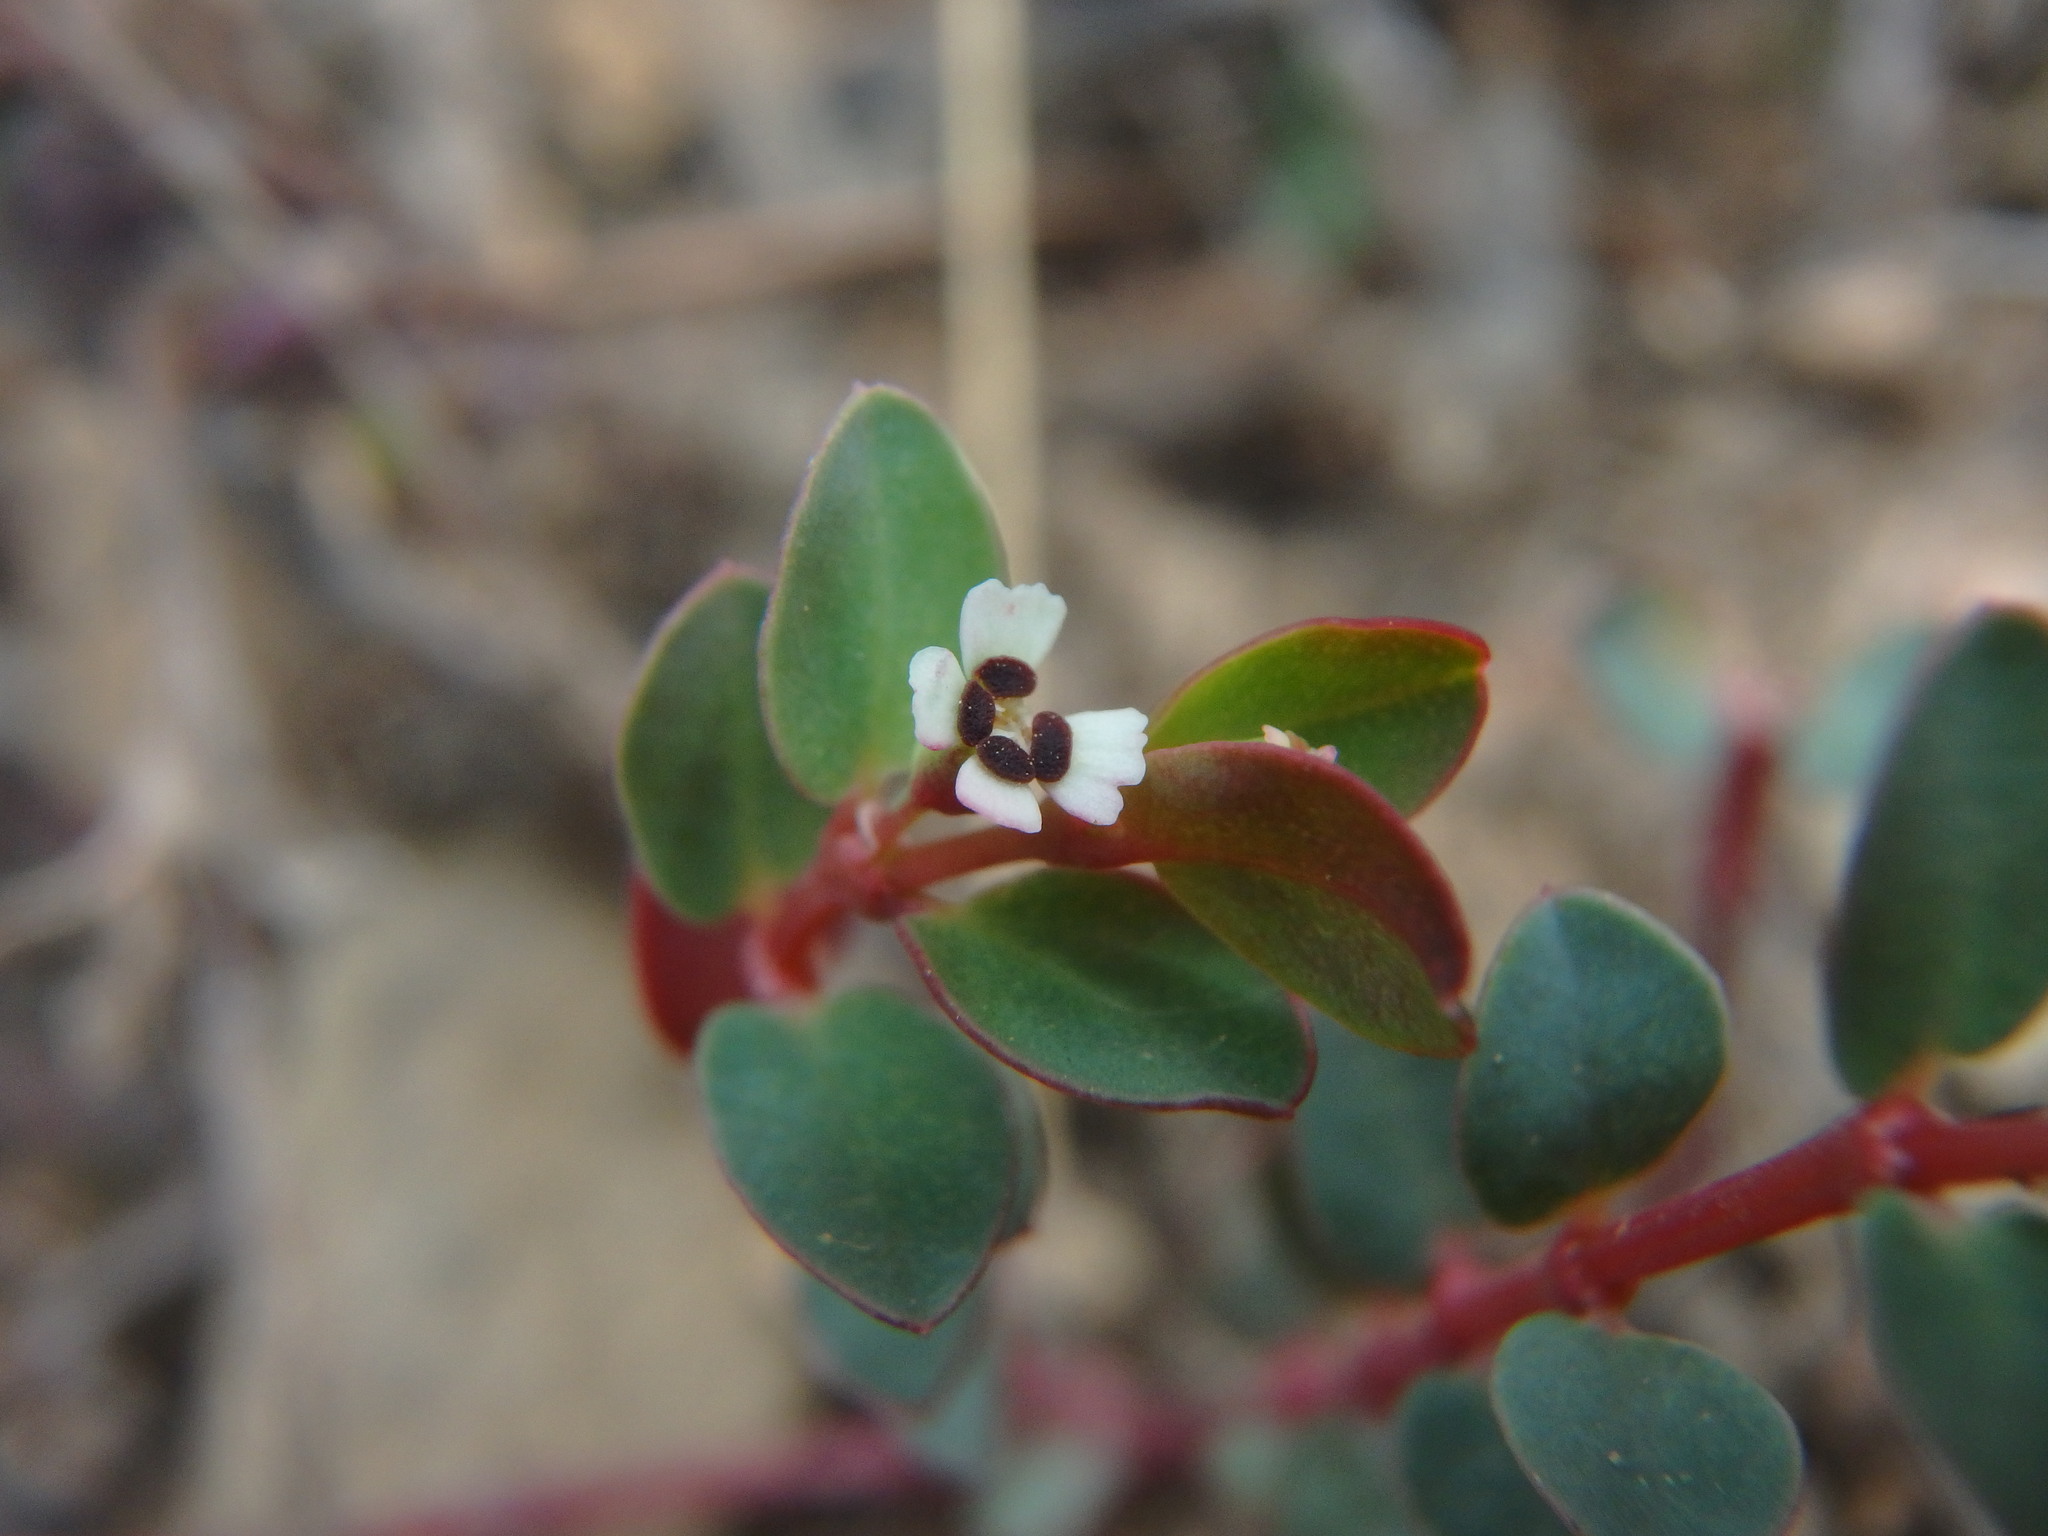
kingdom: Plantae
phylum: Tracheophyta
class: Magnoliopsida
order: Malpighiales
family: Euphorbiaceae
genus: Euphorbia
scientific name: Euphorbia orbiculata
